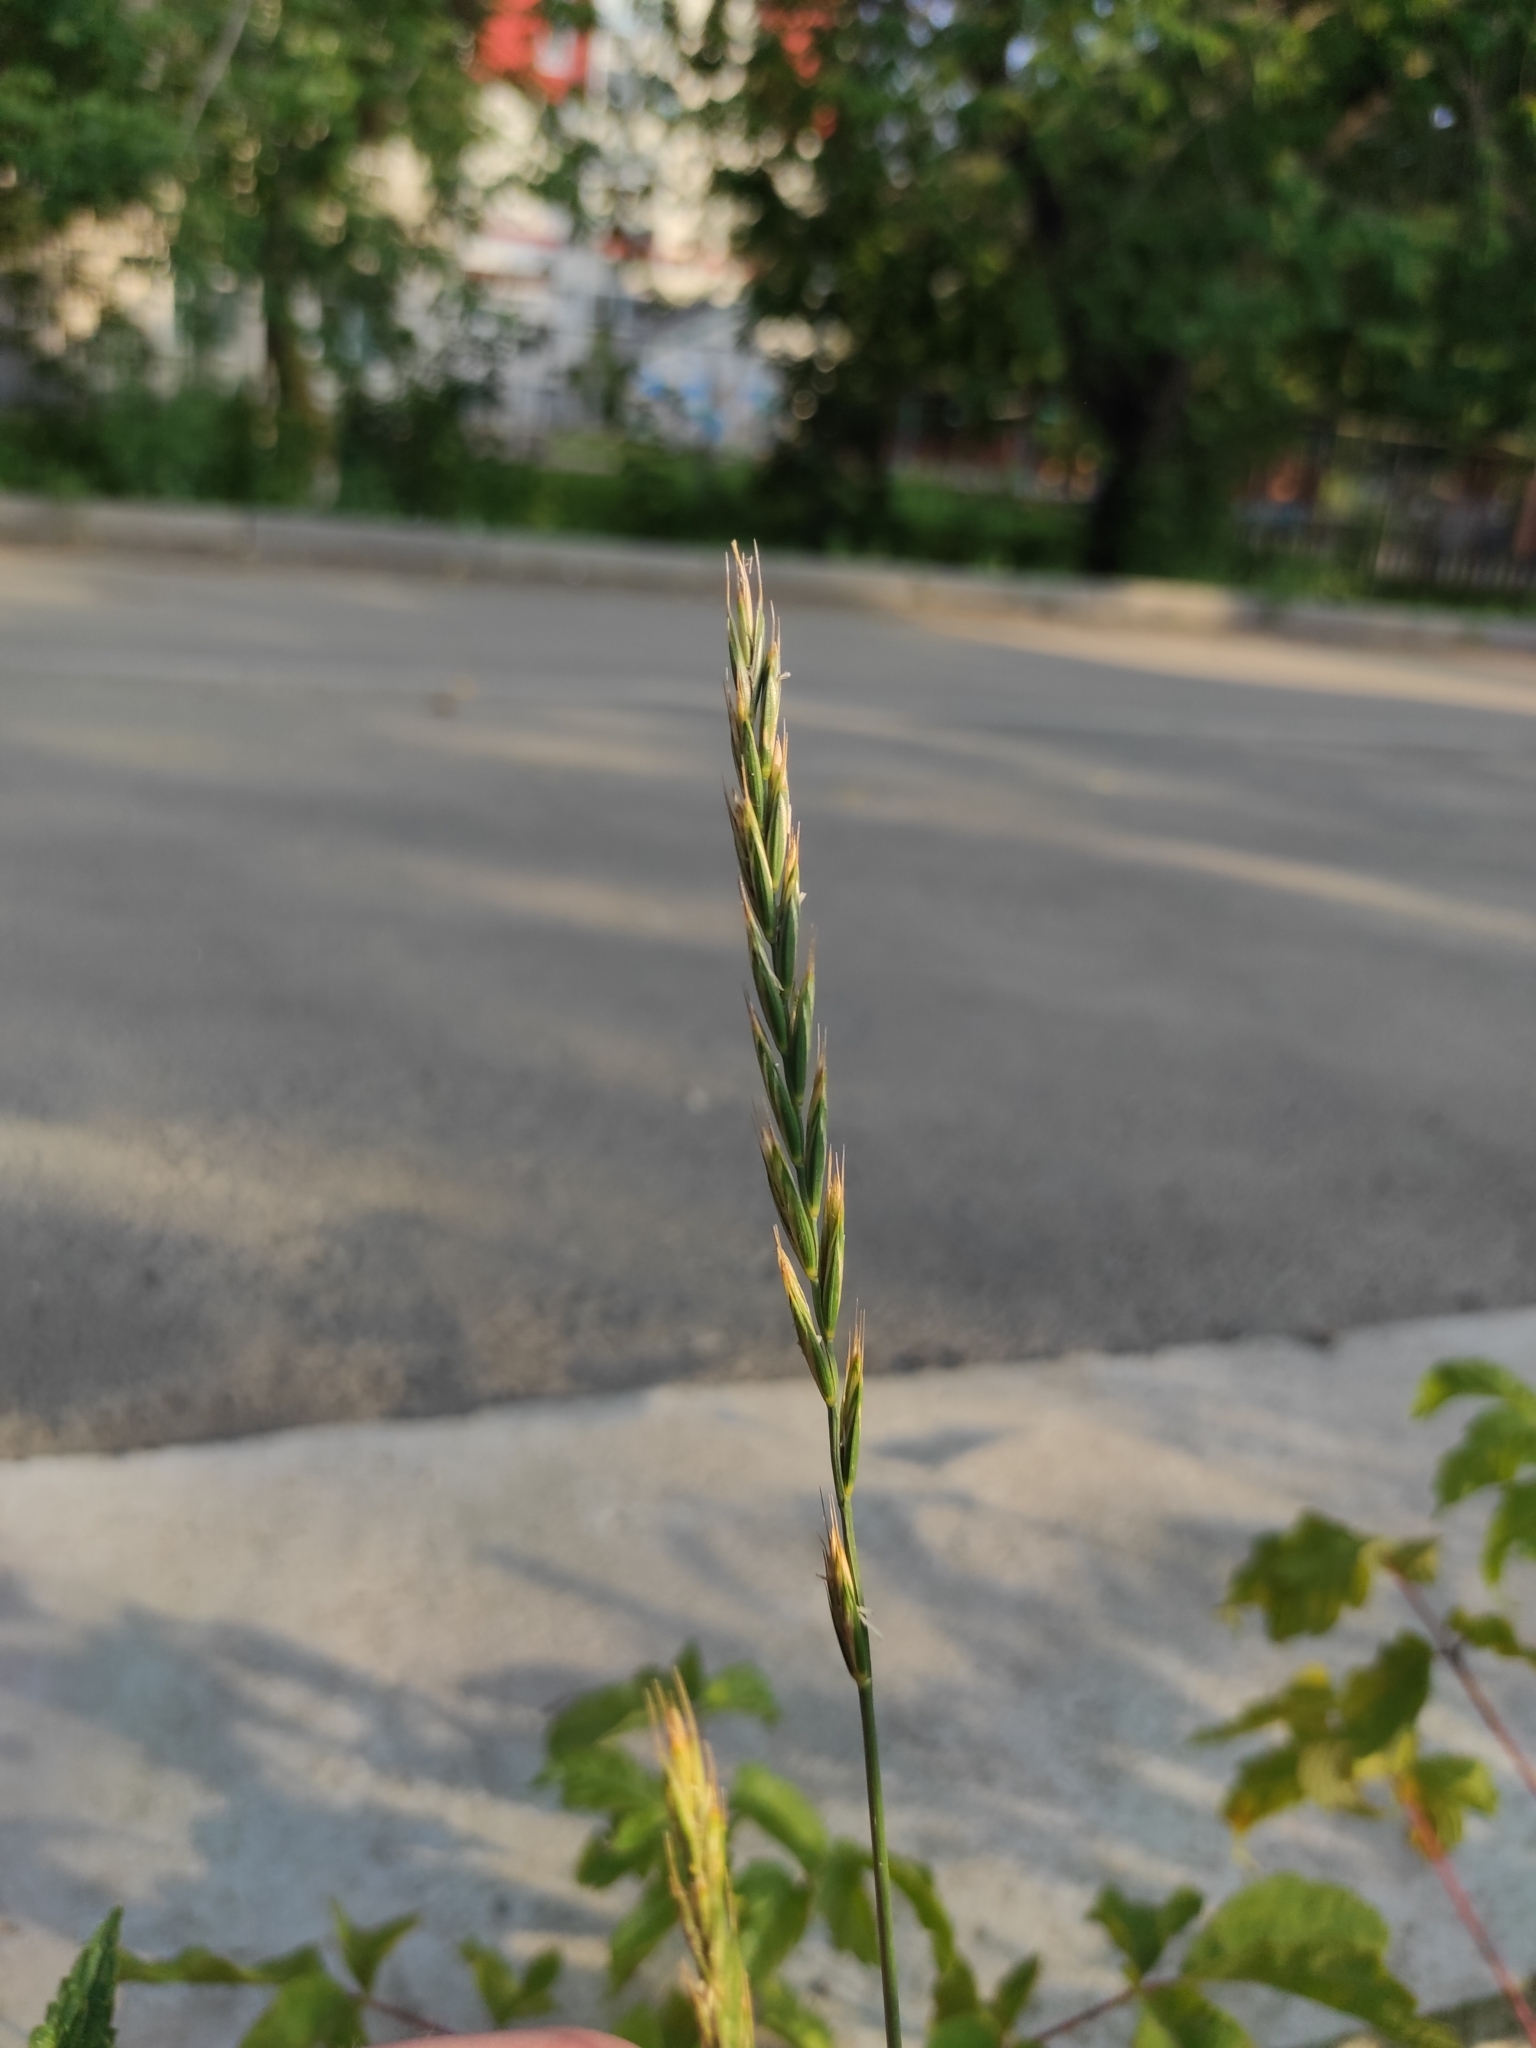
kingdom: Plantae
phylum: Tracheophyta
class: Liliopsida
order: Poales
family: Poaceae
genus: Elymus
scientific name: Elymus repens
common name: Quackgrass
